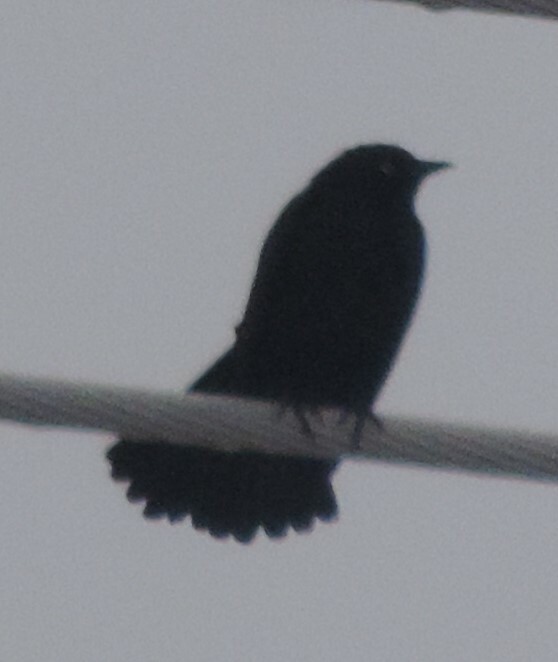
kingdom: Animalia
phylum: Chordata
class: Aves
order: Passeriformes
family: Icteridae
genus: Euphagus
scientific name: Euphagus cyanocephalus
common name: Brewer's blackbird
